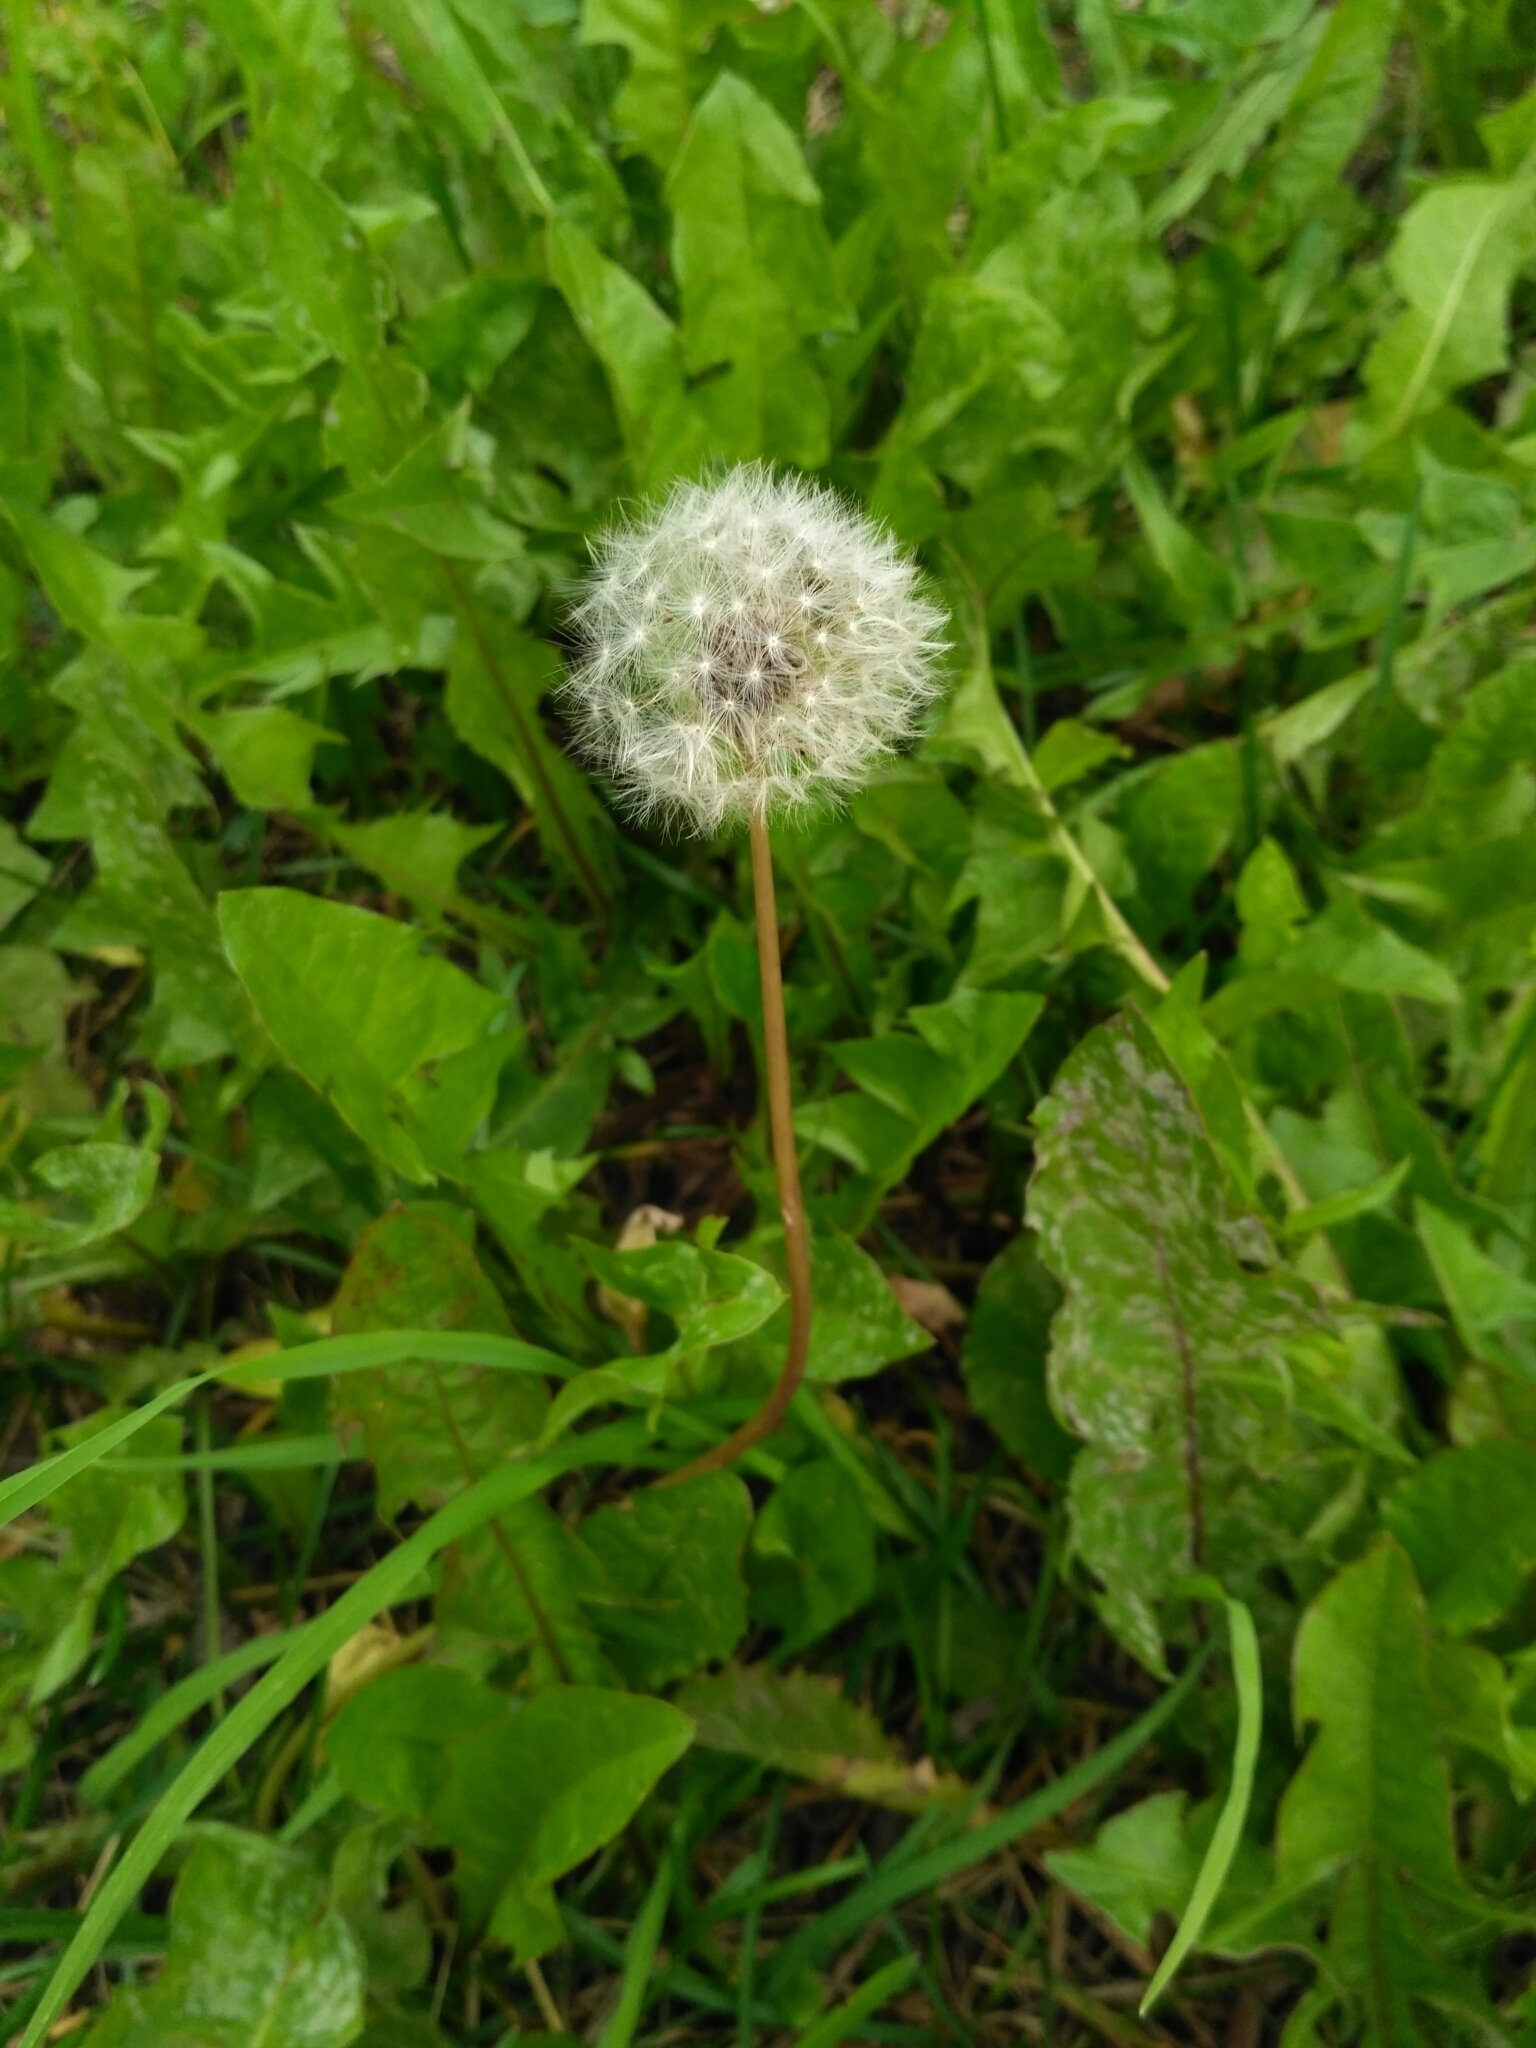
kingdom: Plantae
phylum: Tracheophyta
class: Magnoliopsida
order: Asterales
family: Asteraceae
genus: Taraxacum
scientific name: Taraxacum officinale
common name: Common dandelion
